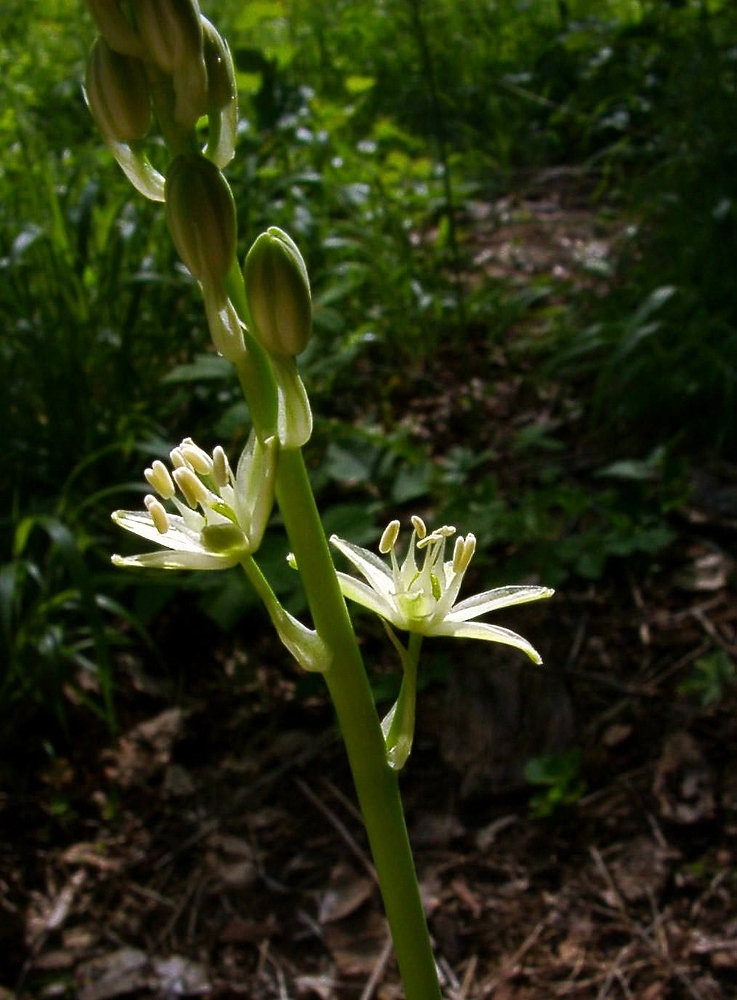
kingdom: Plantae
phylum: Tracheophyta
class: Liliopsida
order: Asparagales
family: Asparagaceae
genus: Ornithogalum
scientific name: Ornithogalum pyrenaicum
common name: Spiked star-of-bethlehem
